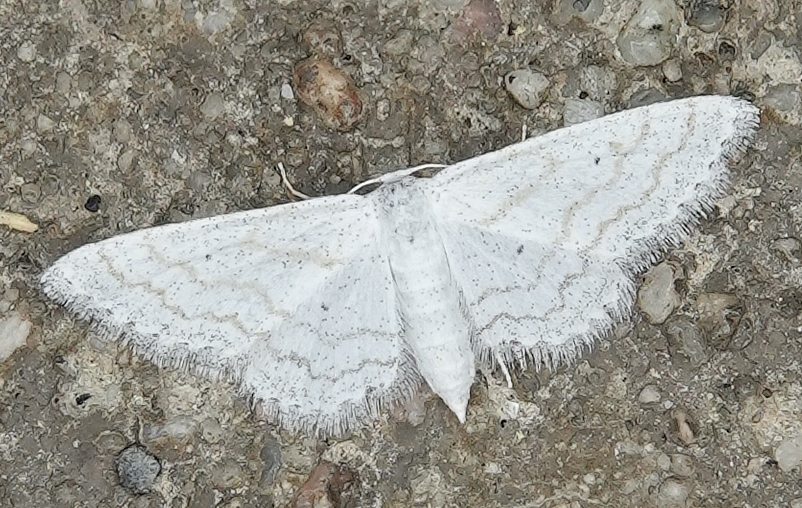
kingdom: Animalia
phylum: Arthropoda
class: Insecta
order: Lepidoptera
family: Geometridae
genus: Lobocleta
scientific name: Lobocleta peralbata
